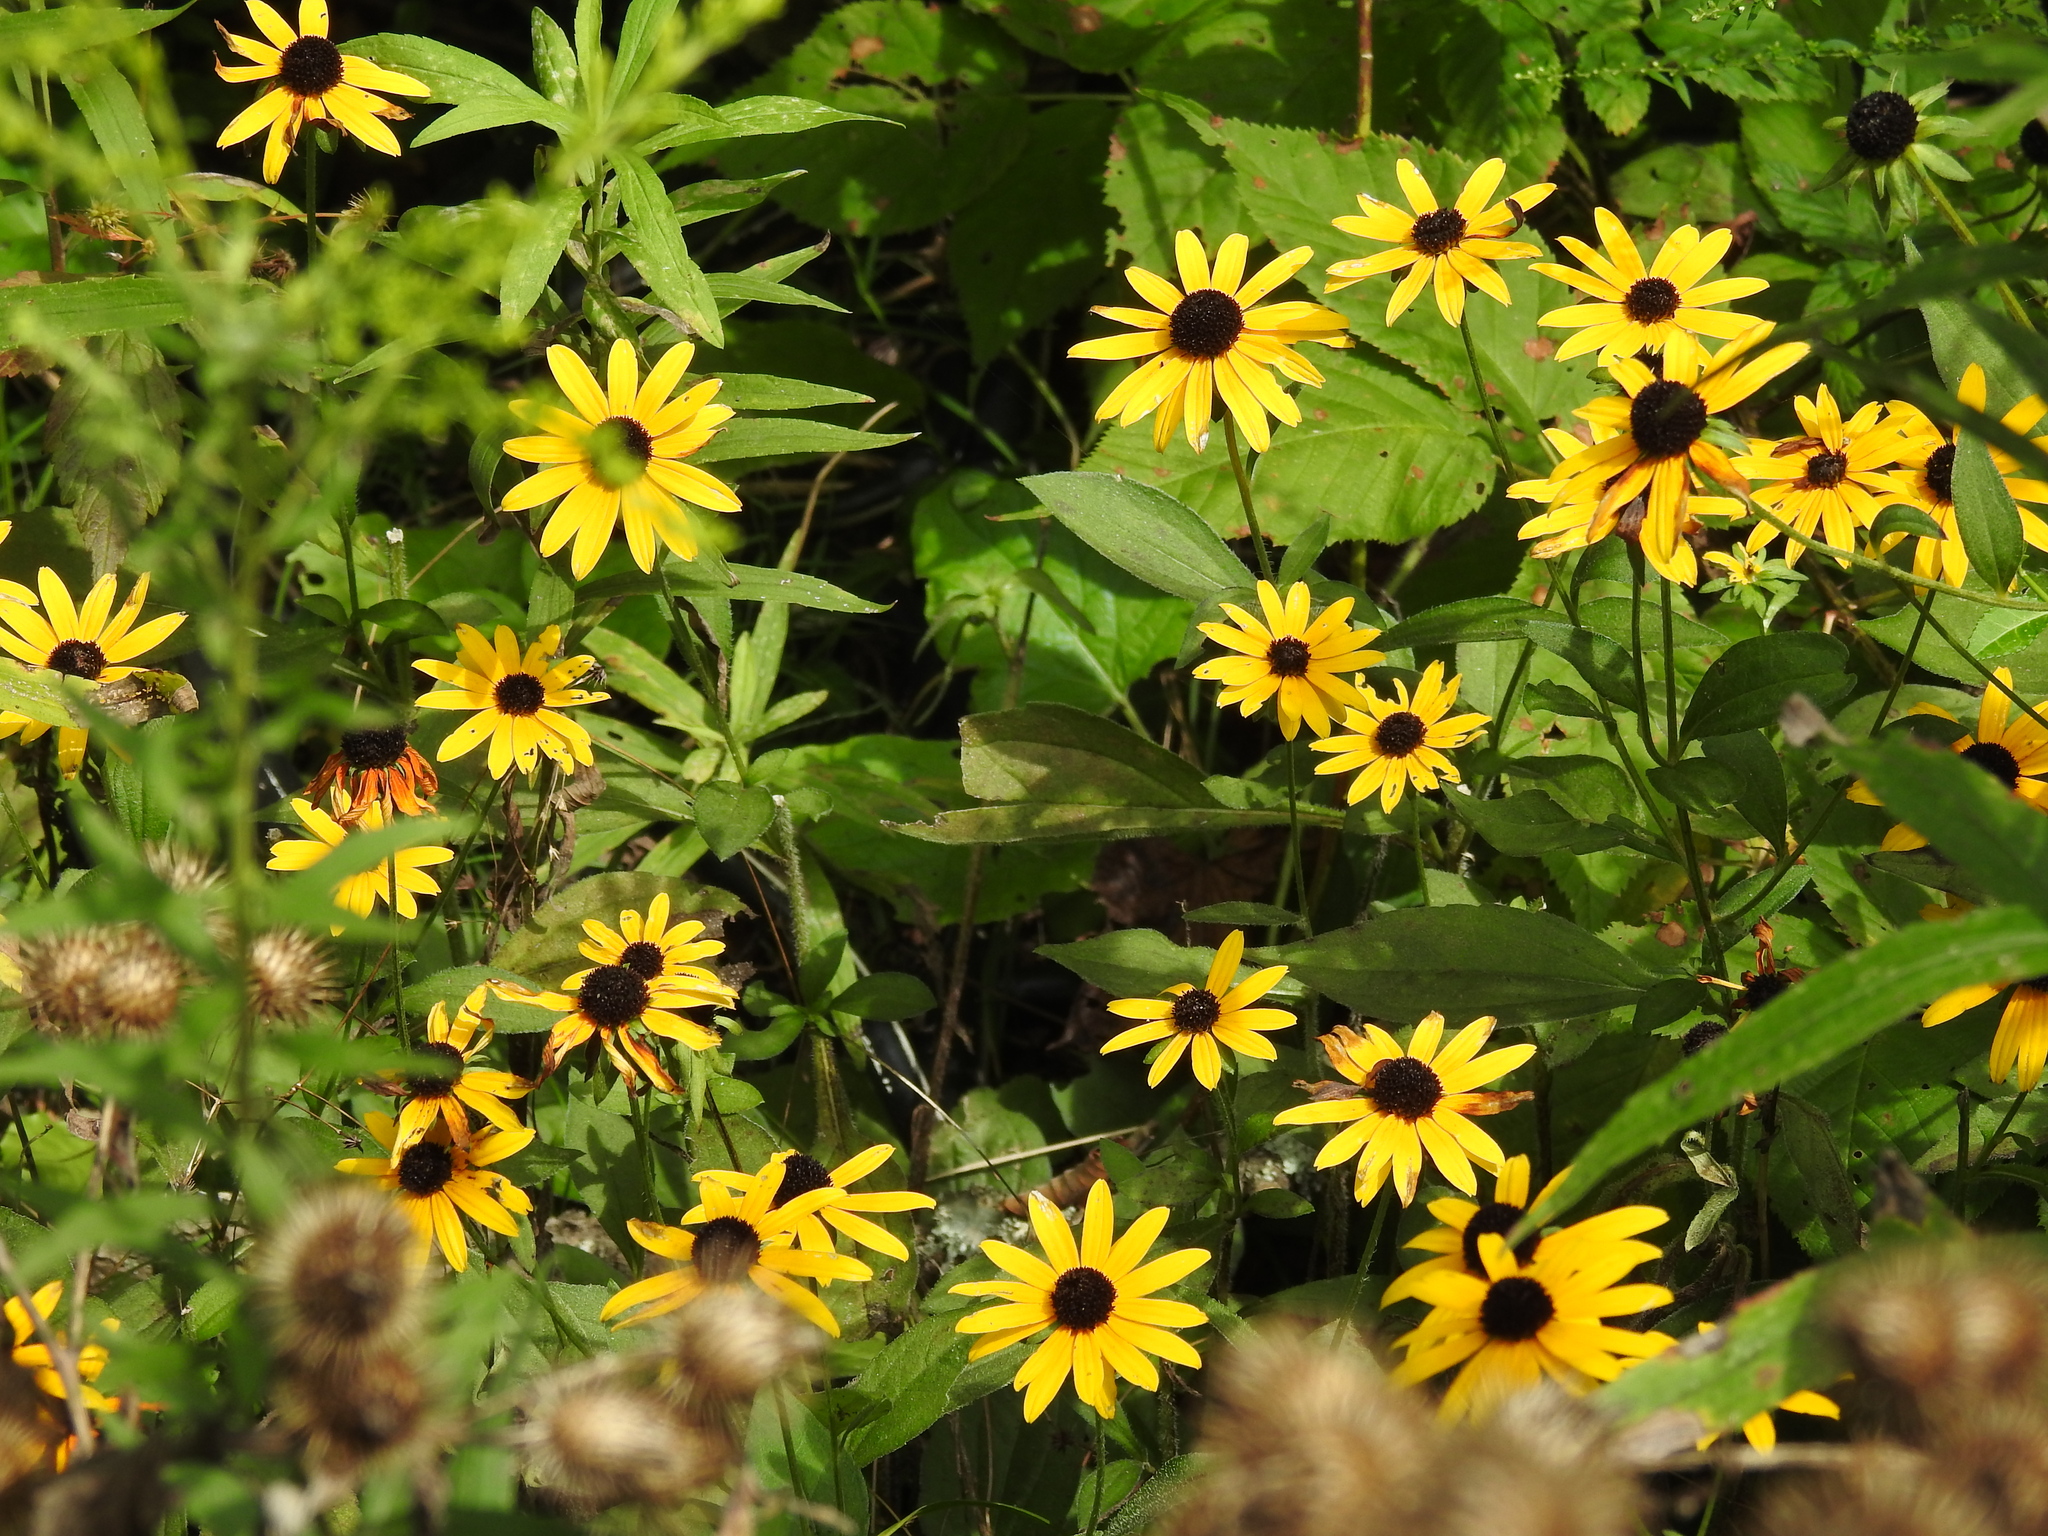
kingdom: Plantae
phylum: Tracheophyta
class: Magnoliopsida
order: Asterales
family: Asteraceae
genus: Rudbeckia
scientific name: Rudbeckia hirta
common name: Black-eyed-susan
